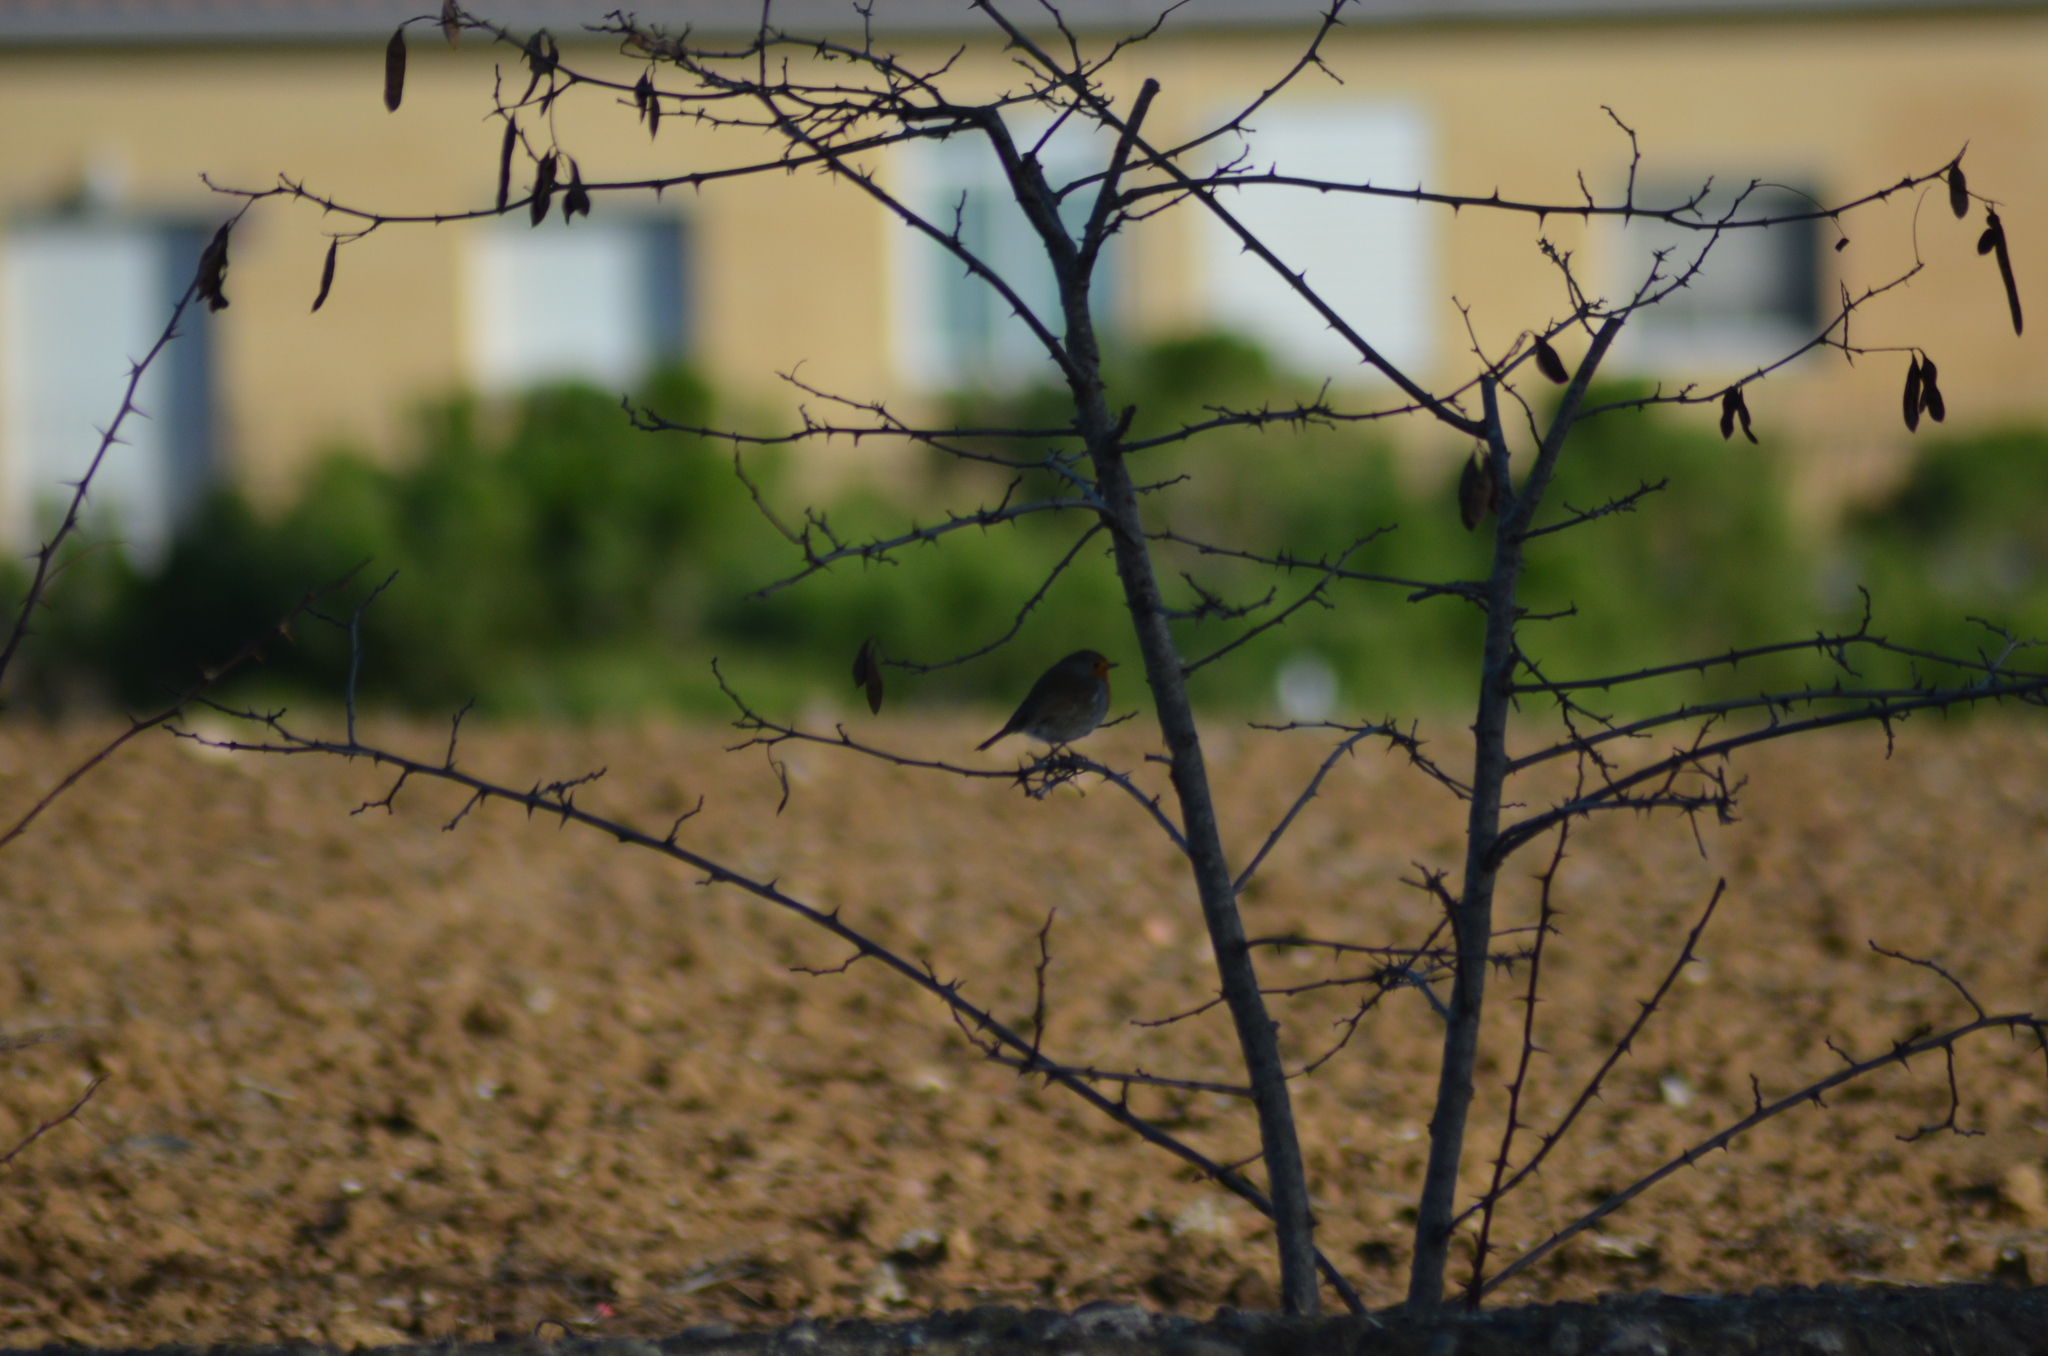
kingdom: Animalia
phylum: Chordata
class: Aves
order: Passeriformes
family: Muscicapidae
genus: Erithacus
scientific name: Erithacus rubecula
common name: European robin
